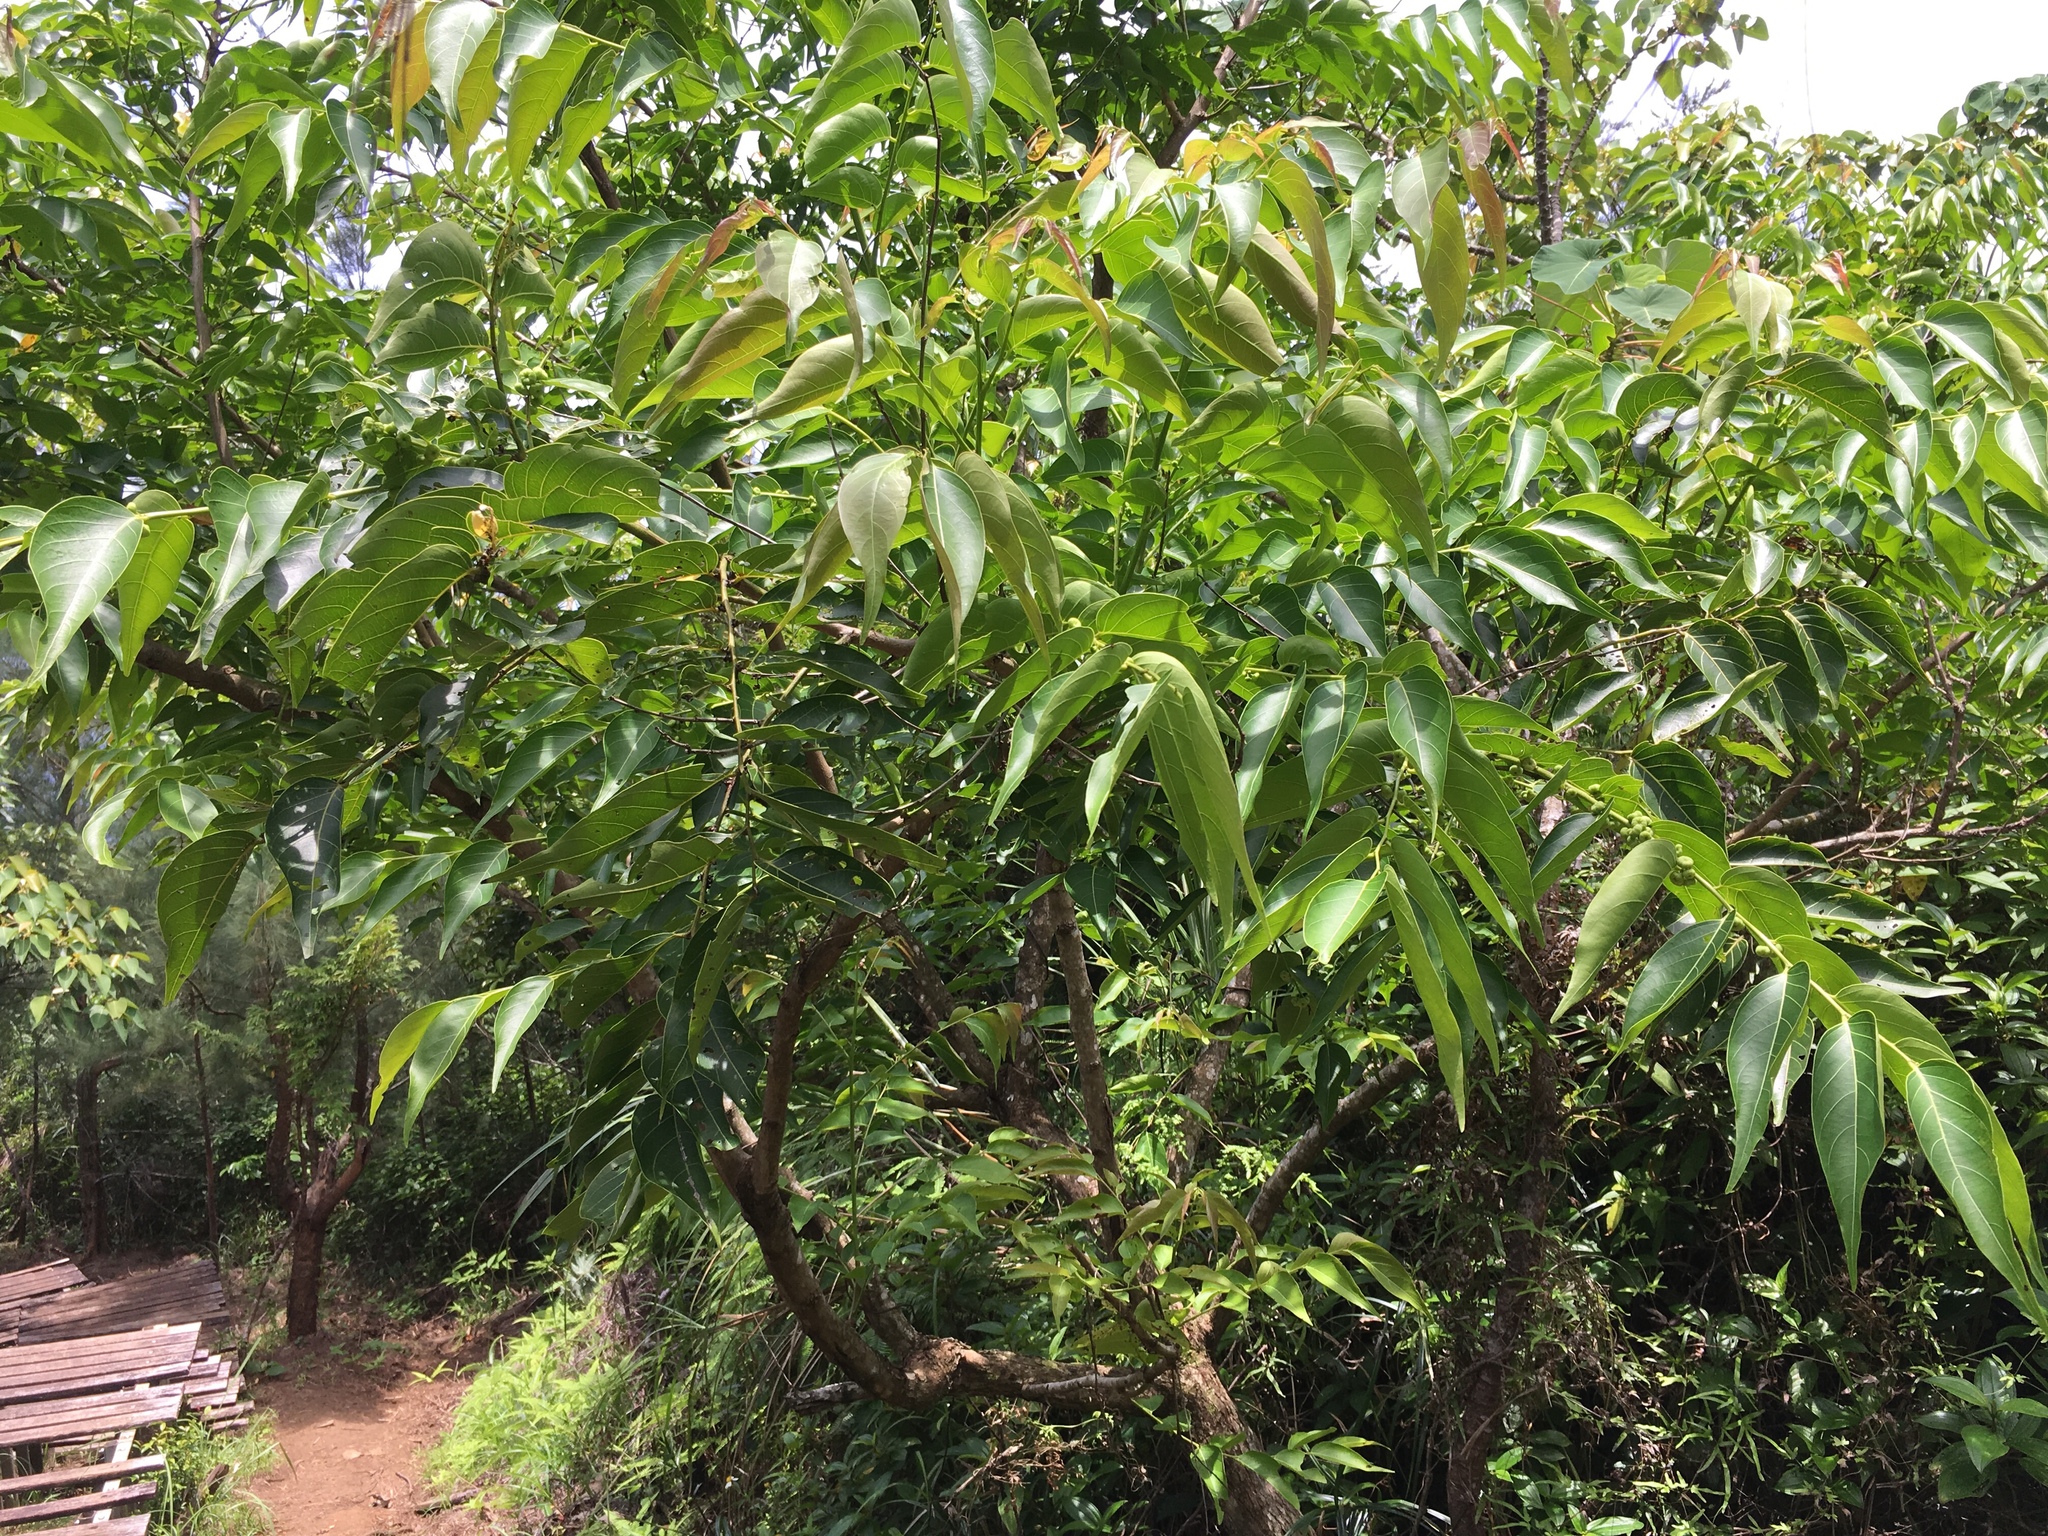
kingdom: Plantae
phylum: Tracheophyta
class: Magnoliopsida
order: Malpighiales
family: Phyllanthaceae
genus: Glochidion
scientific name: Glochidion lanceolatum
